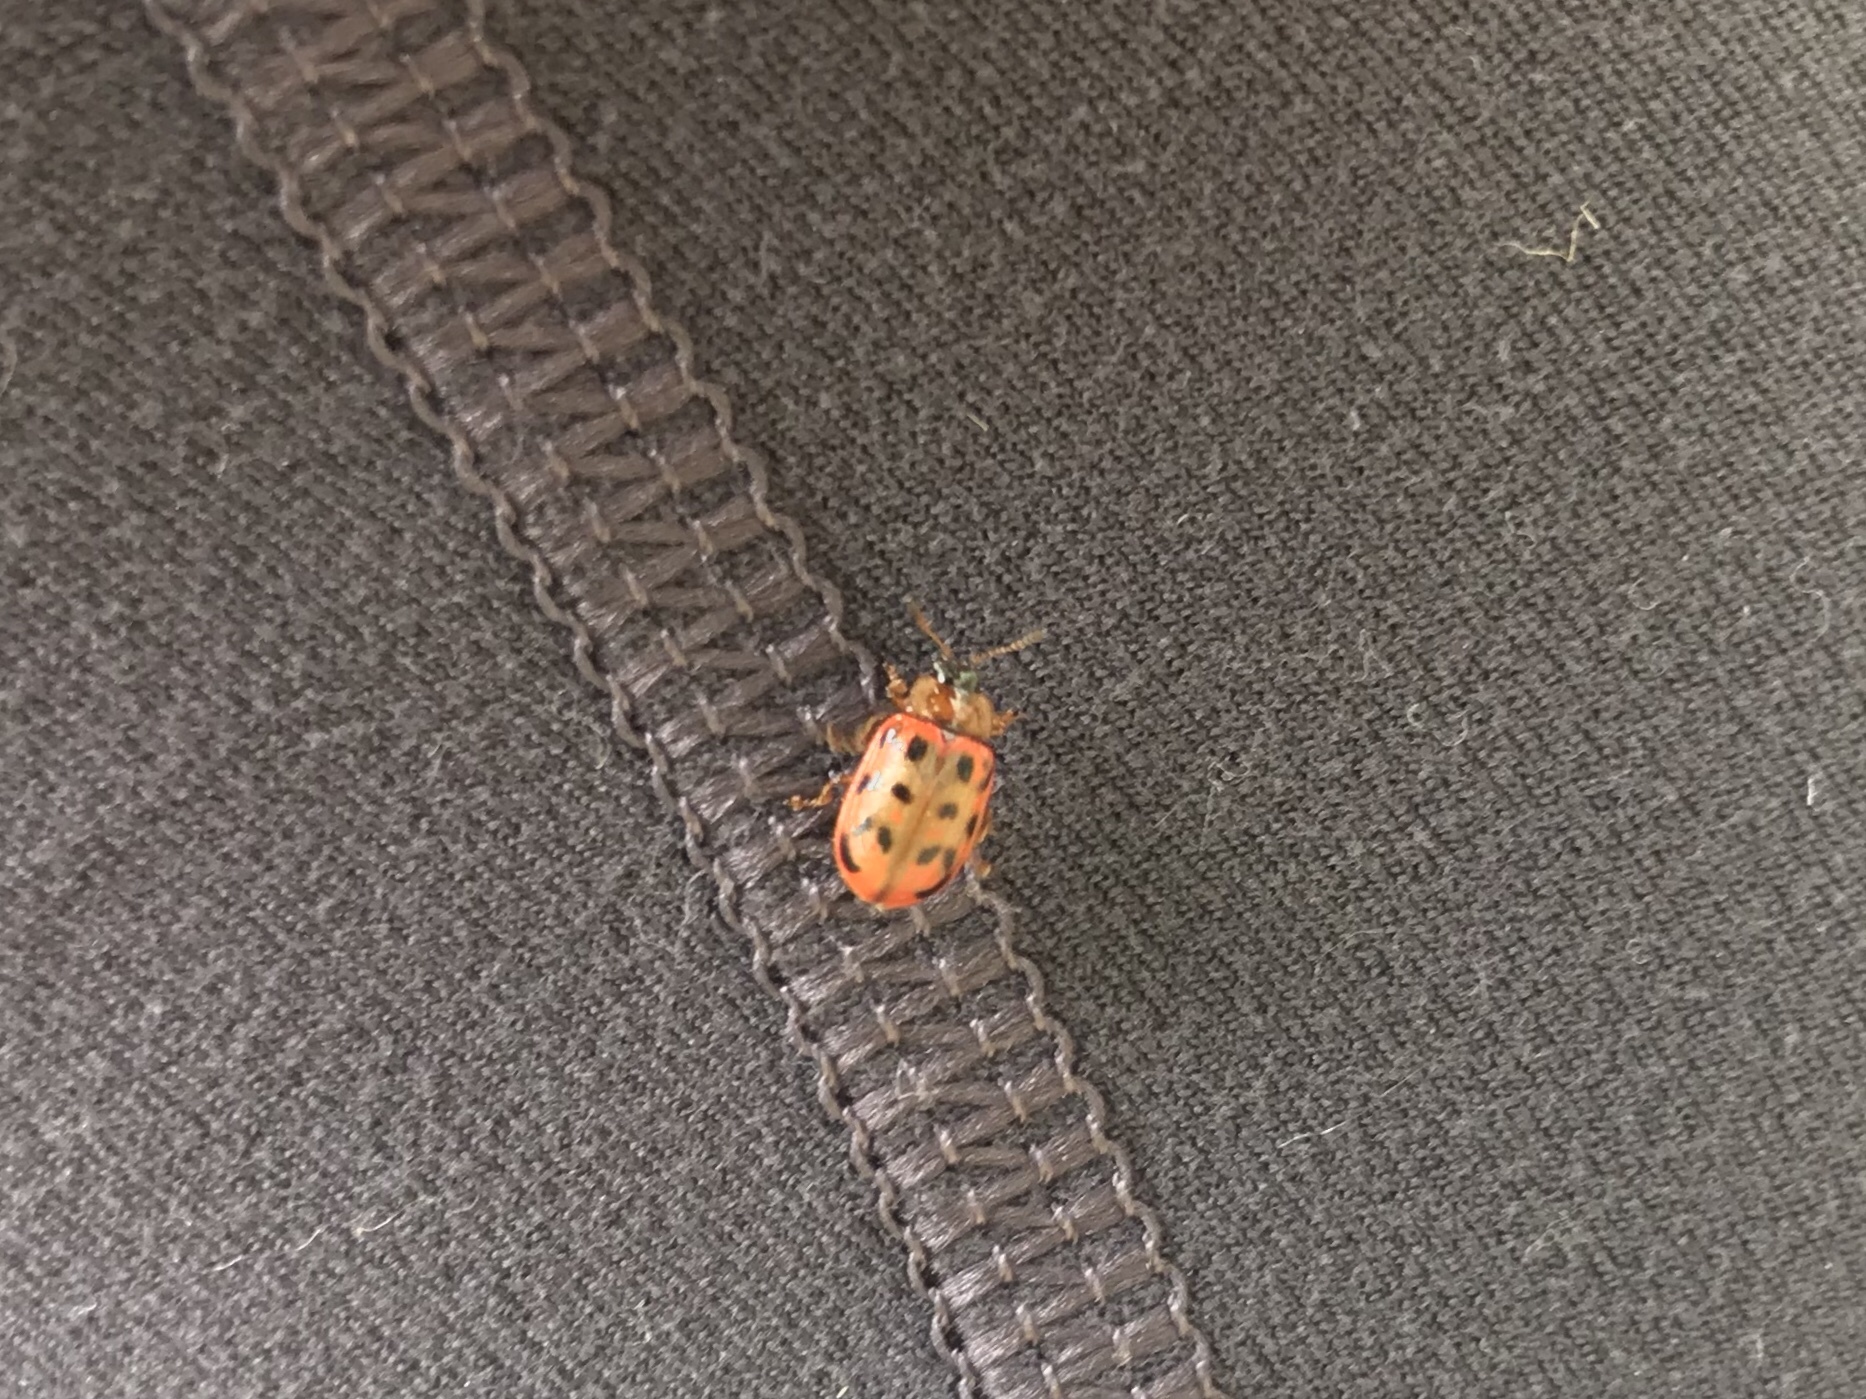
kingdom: Animalia
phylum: Arthropoda
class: Insecta
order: Coleoptera
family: Chrysomelidae
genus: Chrysomela
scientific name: Chrysomela mainensis
